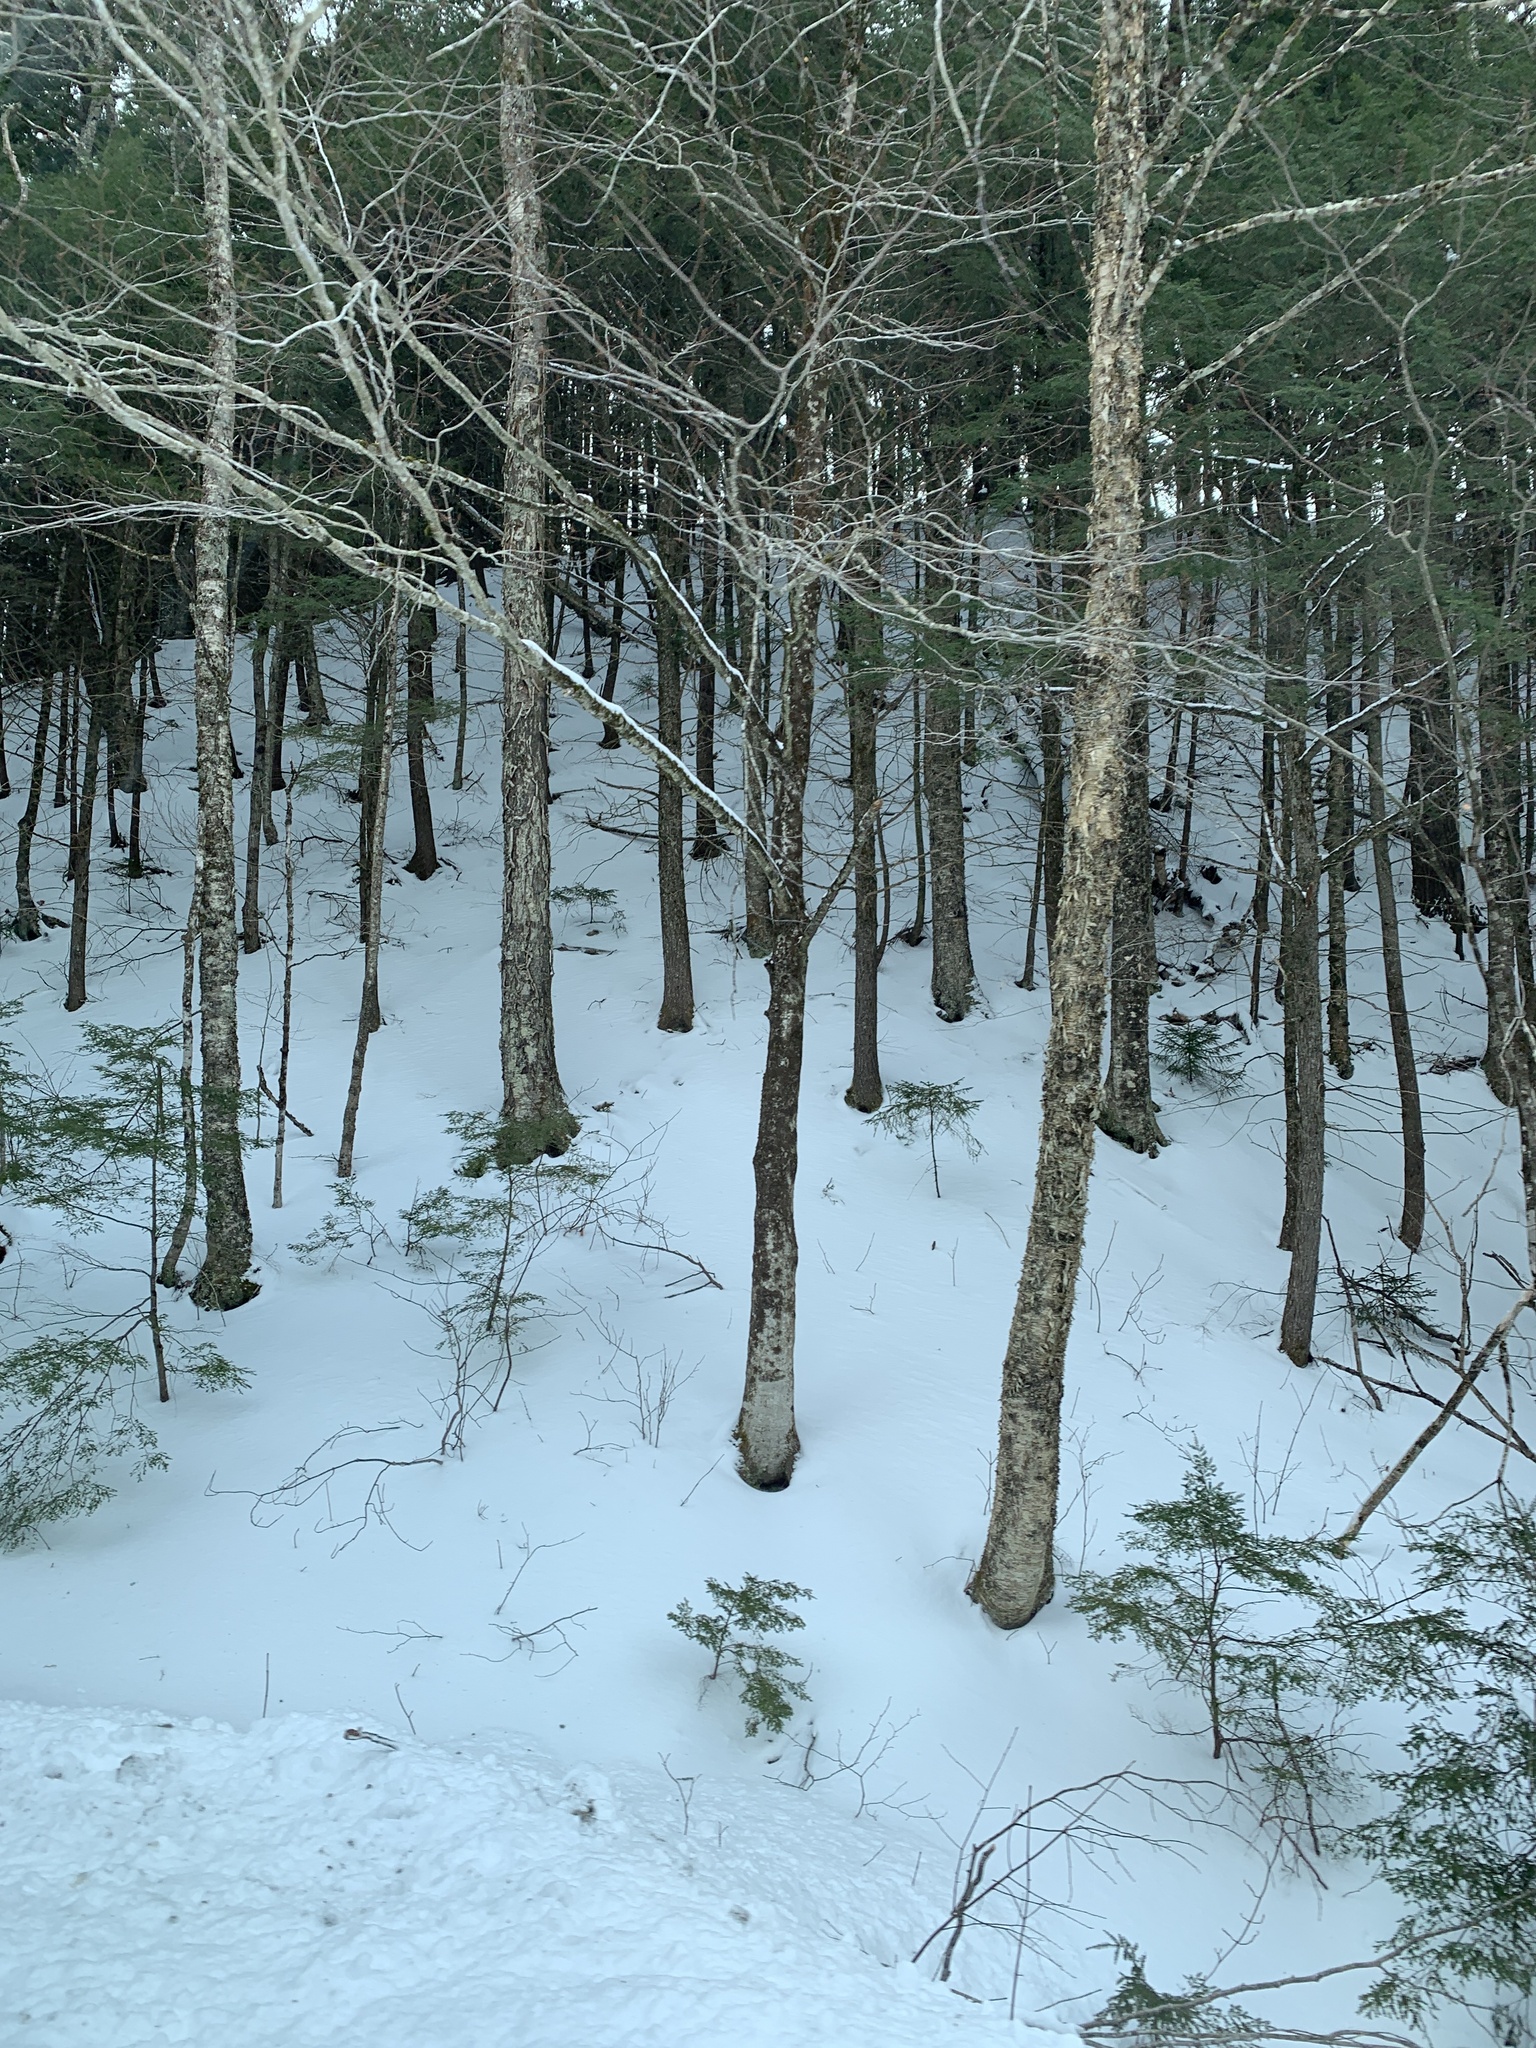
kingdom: Plantae
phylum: Tracheophyta
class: Magnoliopsida
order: Fagales
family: Betulaceae
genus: Betula
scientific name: Betula alleghaniensis
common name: Yellow birch
